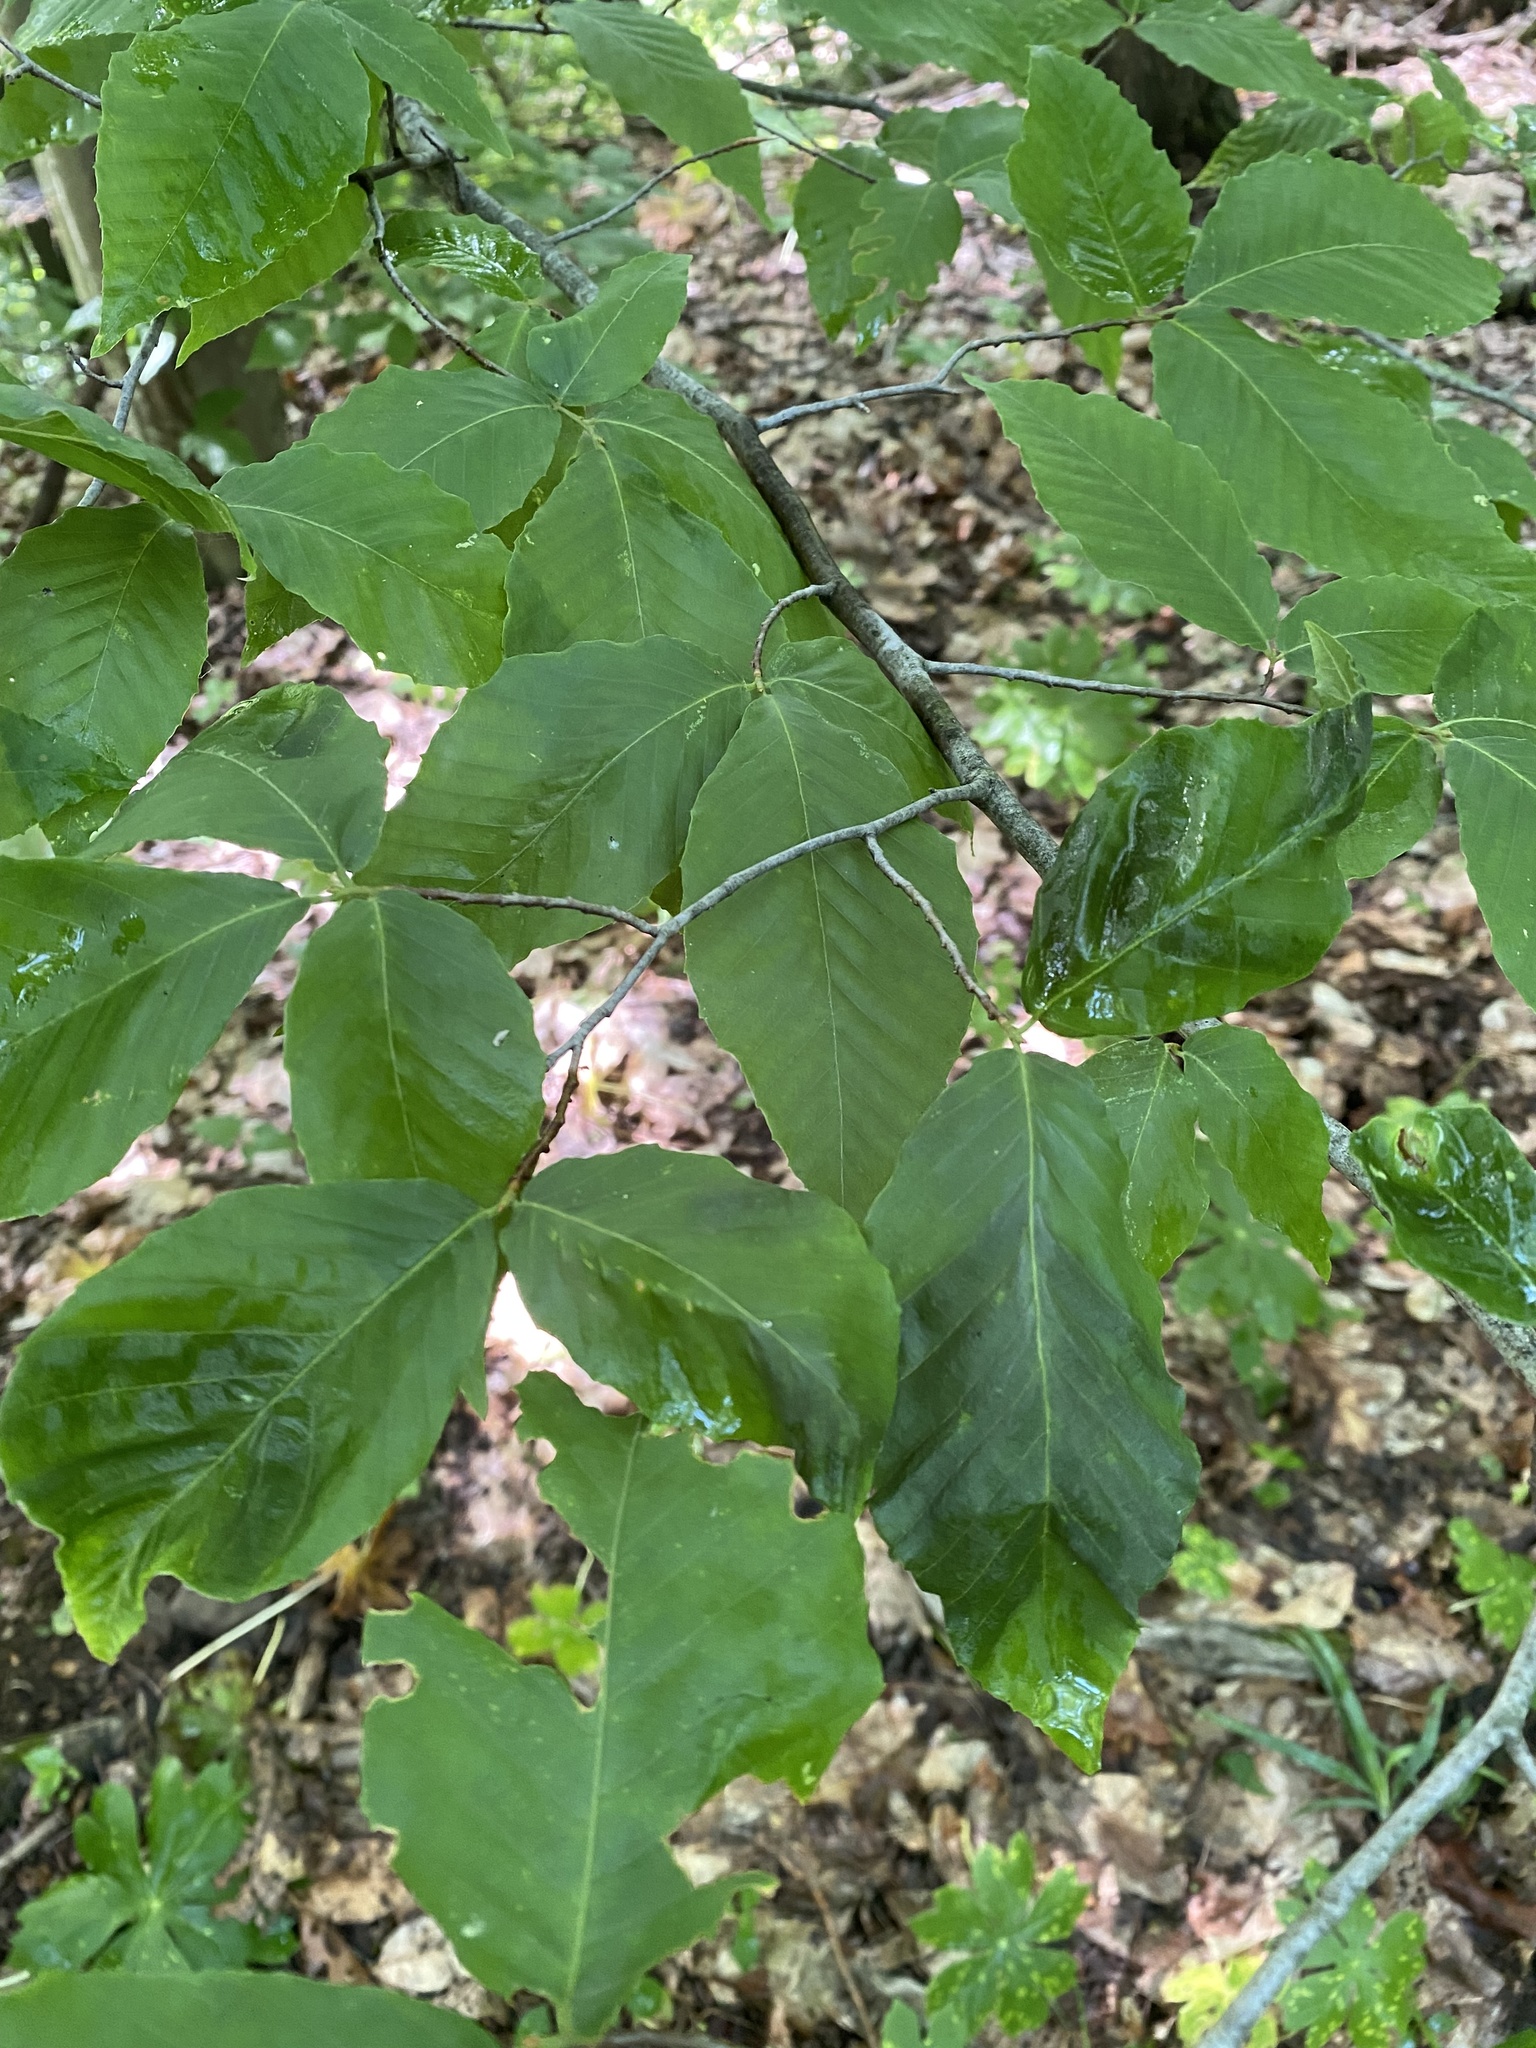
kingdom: Animalia
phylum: Nematoda
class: Chromadorea
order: Rhabditida
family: Anguinidae
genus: Litylenchus
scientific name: Litylenchus crenatae
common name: Beech leaf disease
